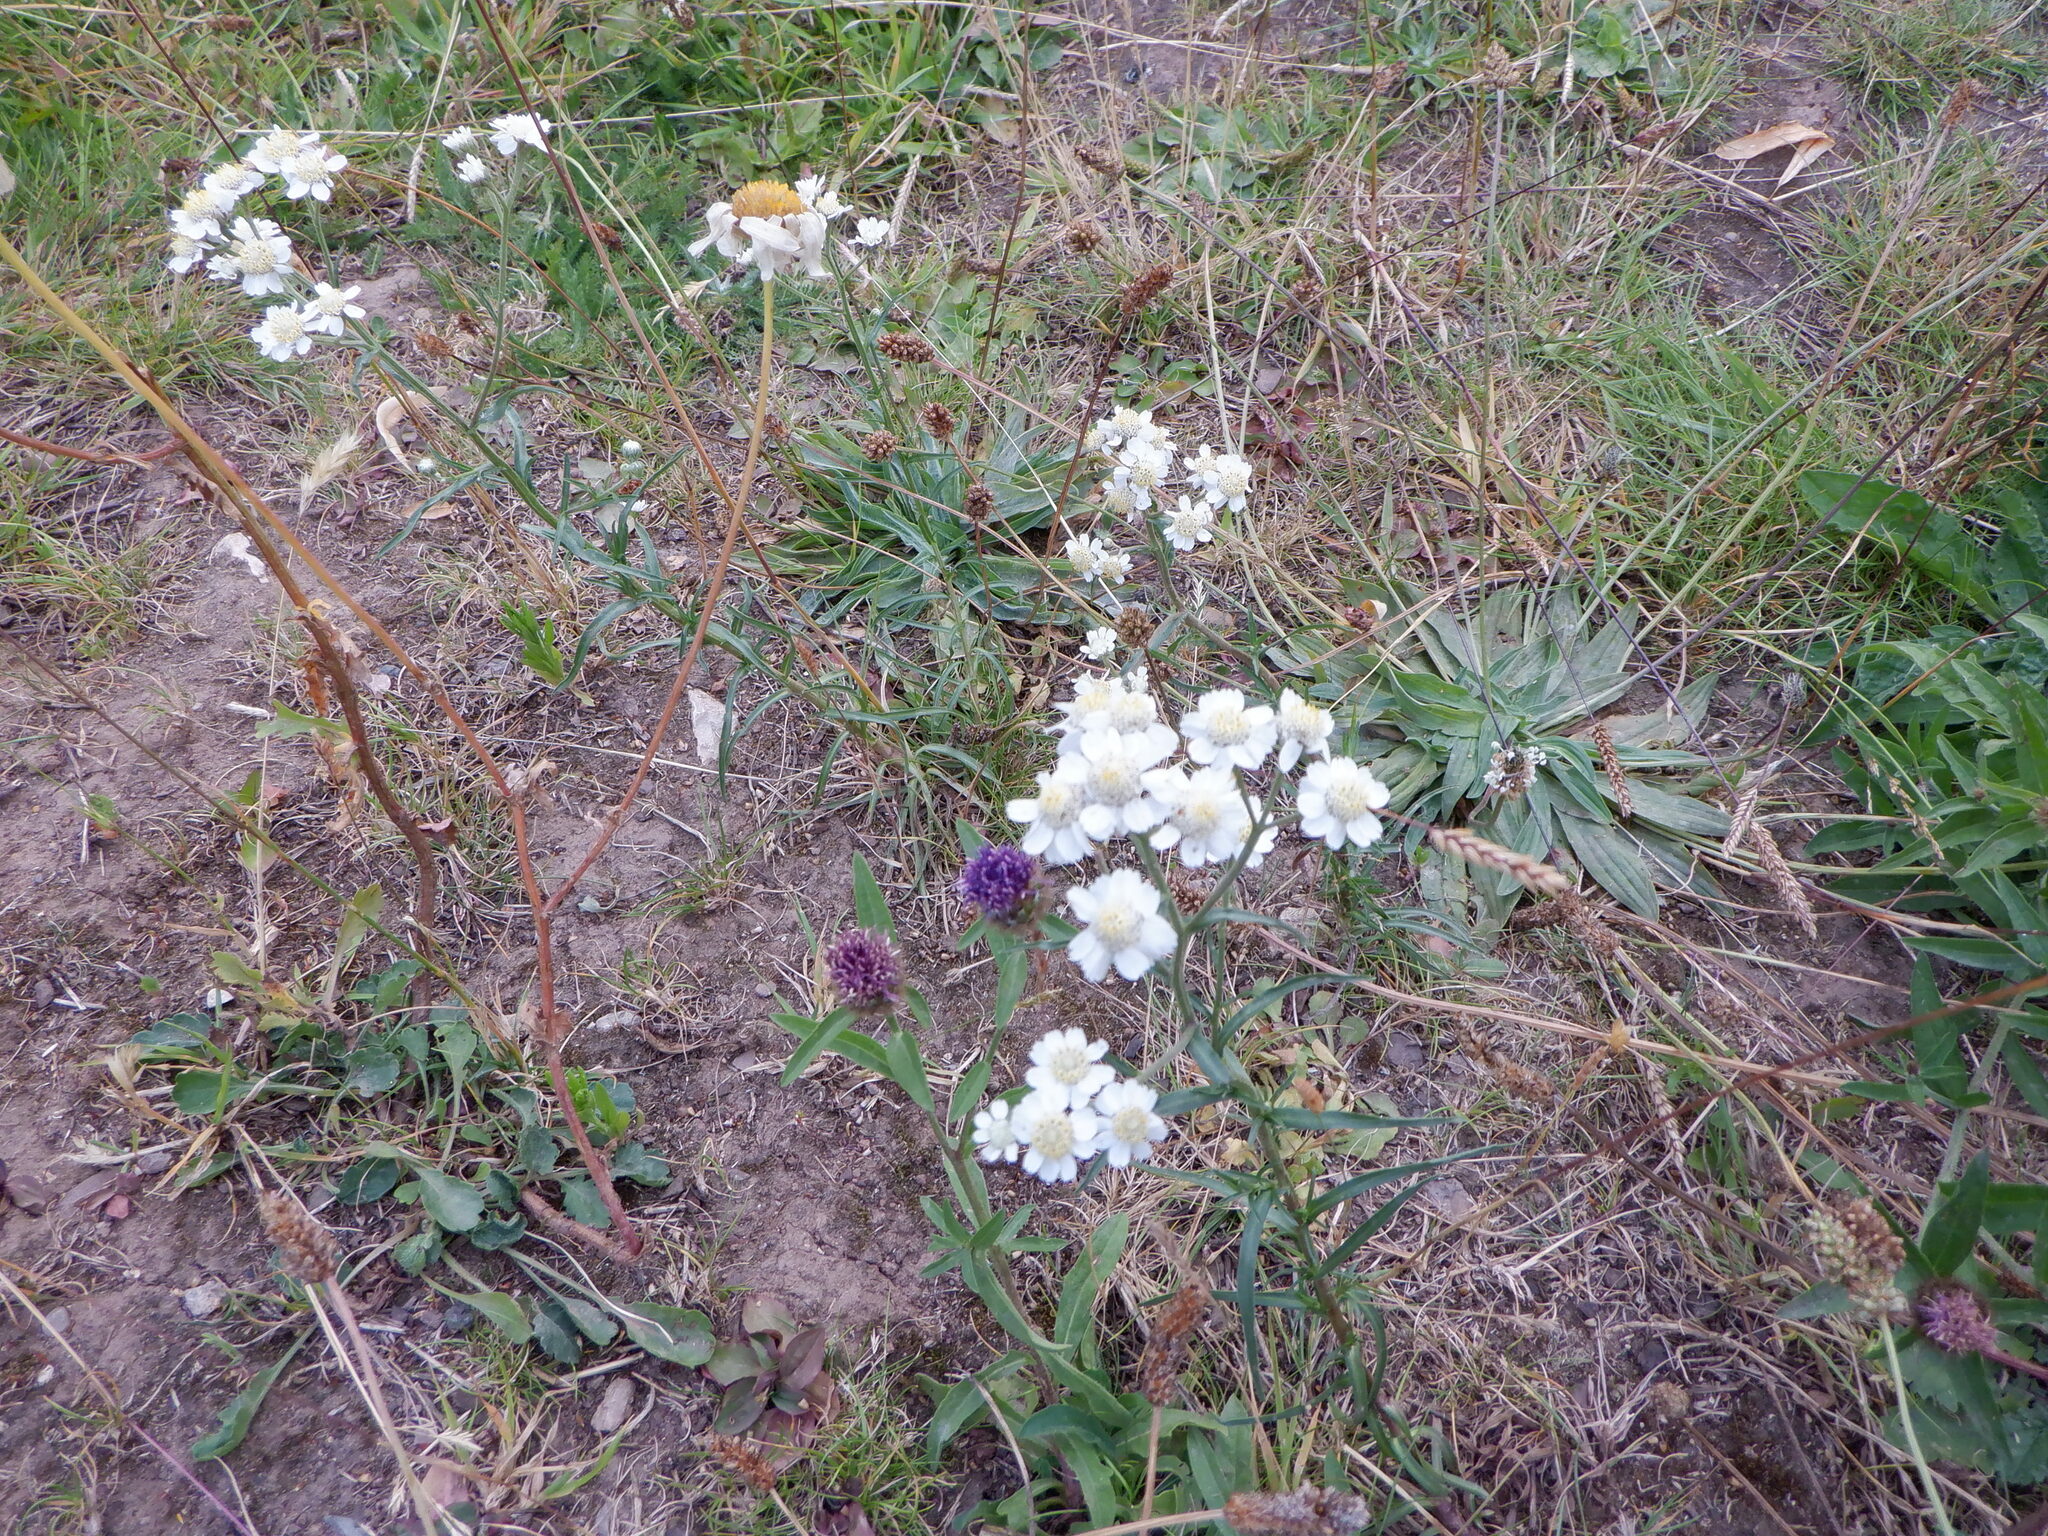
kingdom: Plantae
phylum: Tracheophyta
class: Magnoliopsida
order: Asterales
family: Asteraceae
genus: Achillea
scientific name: Achillea ptarmica
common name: Sneezeweed
